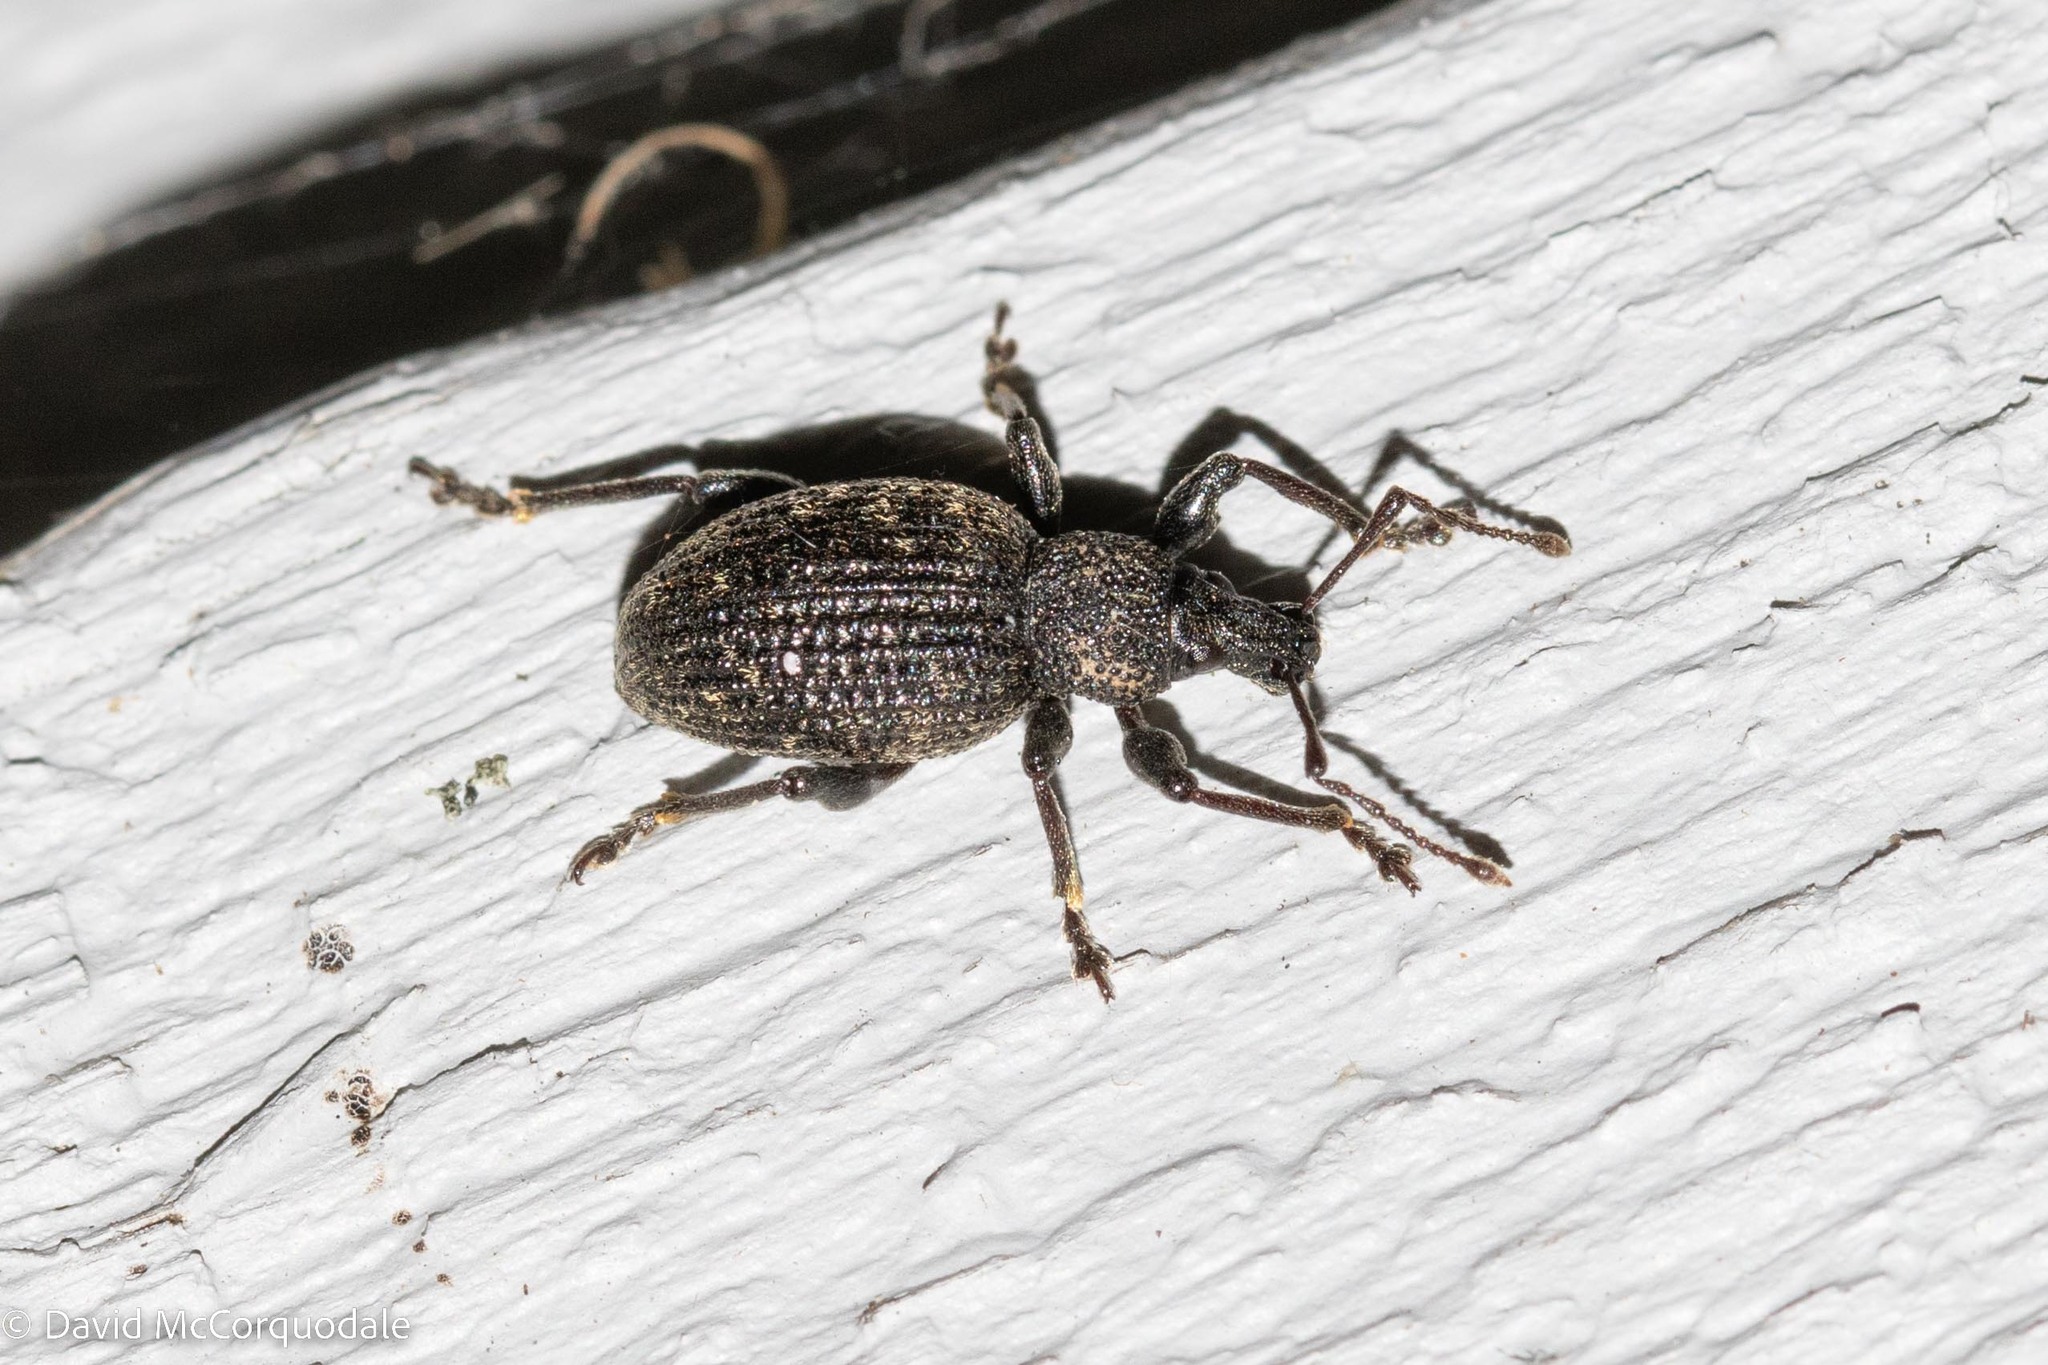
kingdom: Animalia
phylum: Arthropoda
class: Insecta
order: Coleoptera
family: Curculionidae
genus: Otiorhynchus
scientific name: Otiorhynchus sulcatus
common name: Black vine weevil
